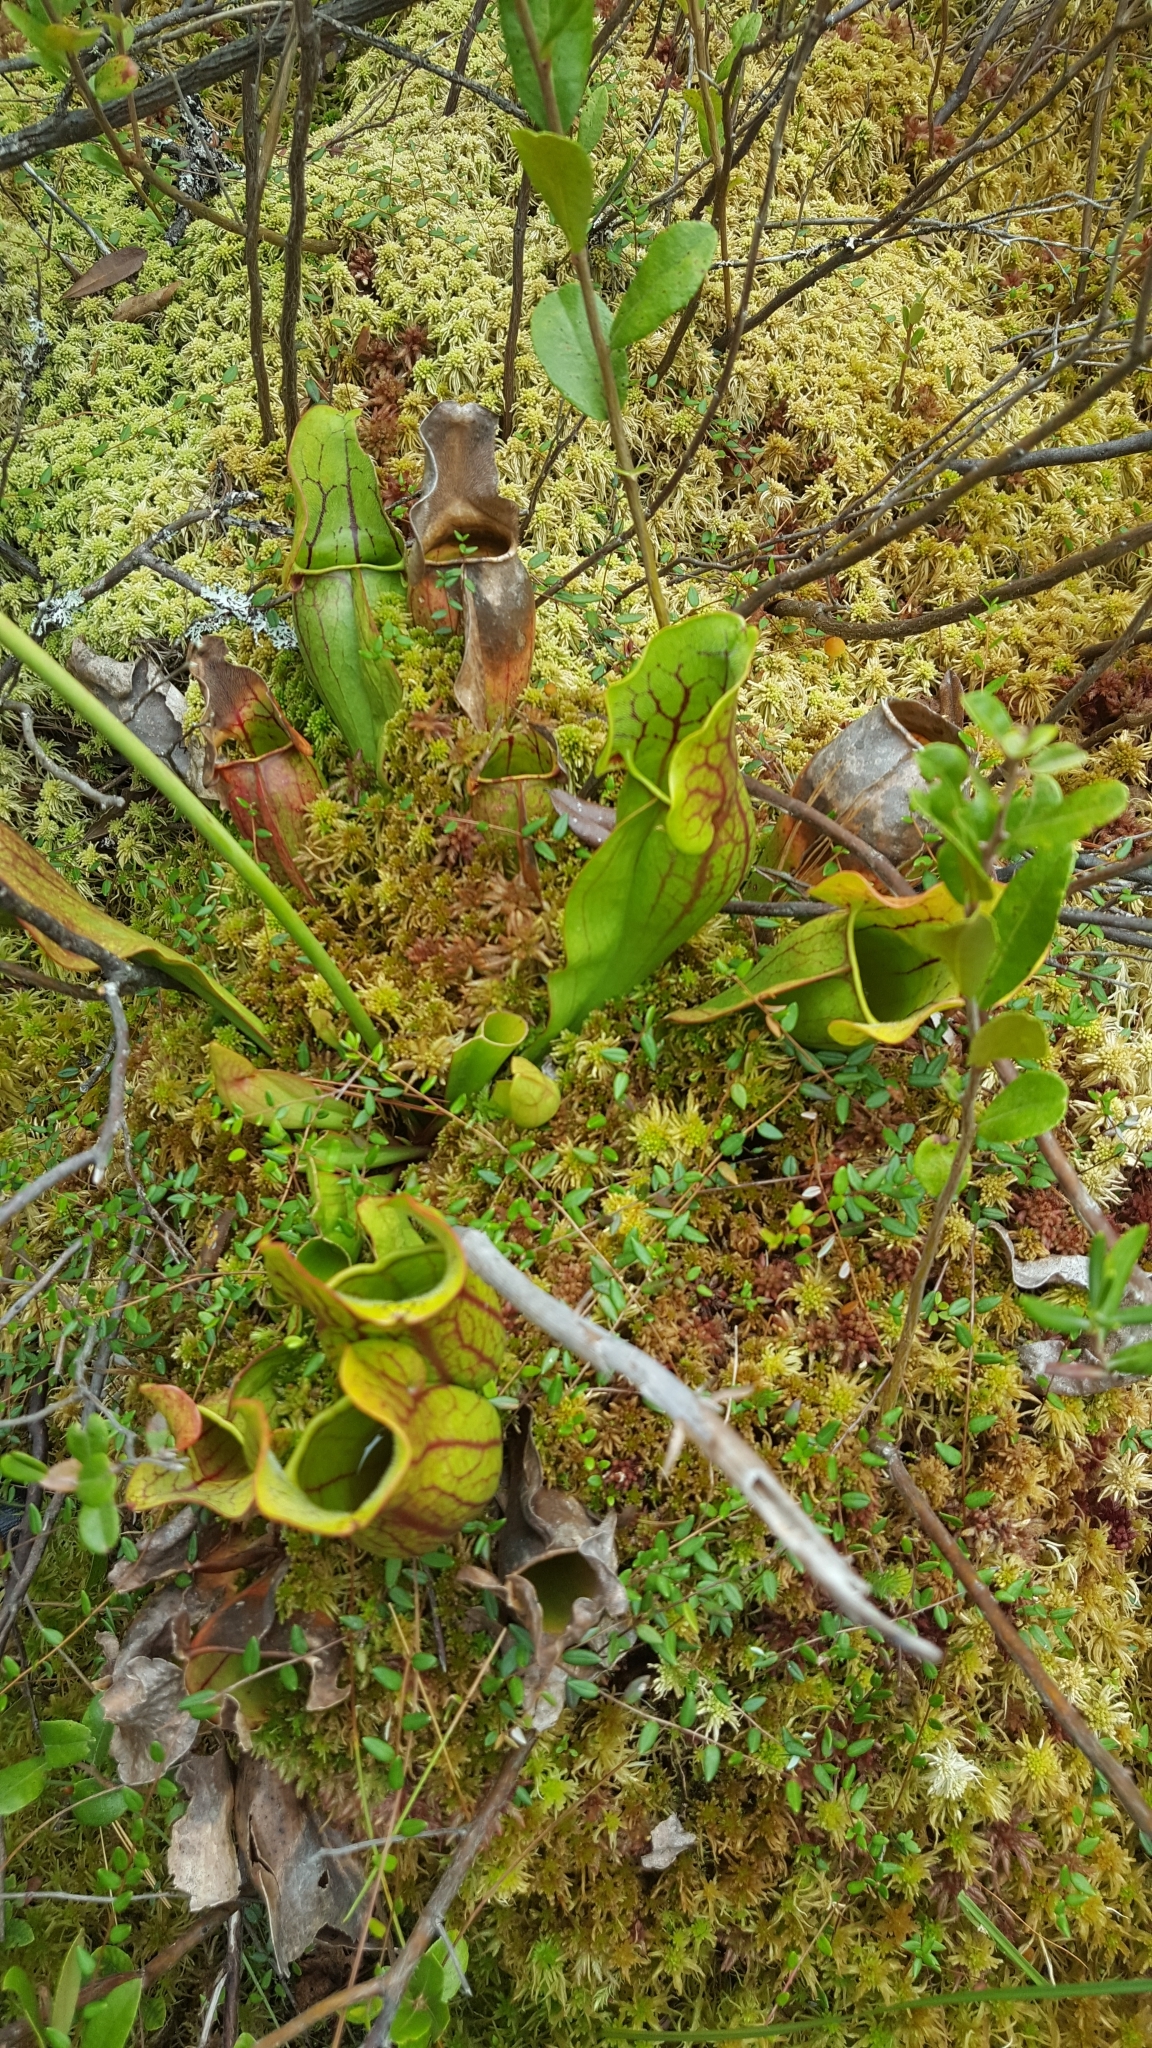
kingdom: Plantae
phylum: Tracheophyta
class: Magnoliopsida
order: Ericales
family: Sarraceniaceae
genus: Sarracenia
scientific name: Sarracenia purpurea
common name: Pitcherplant
